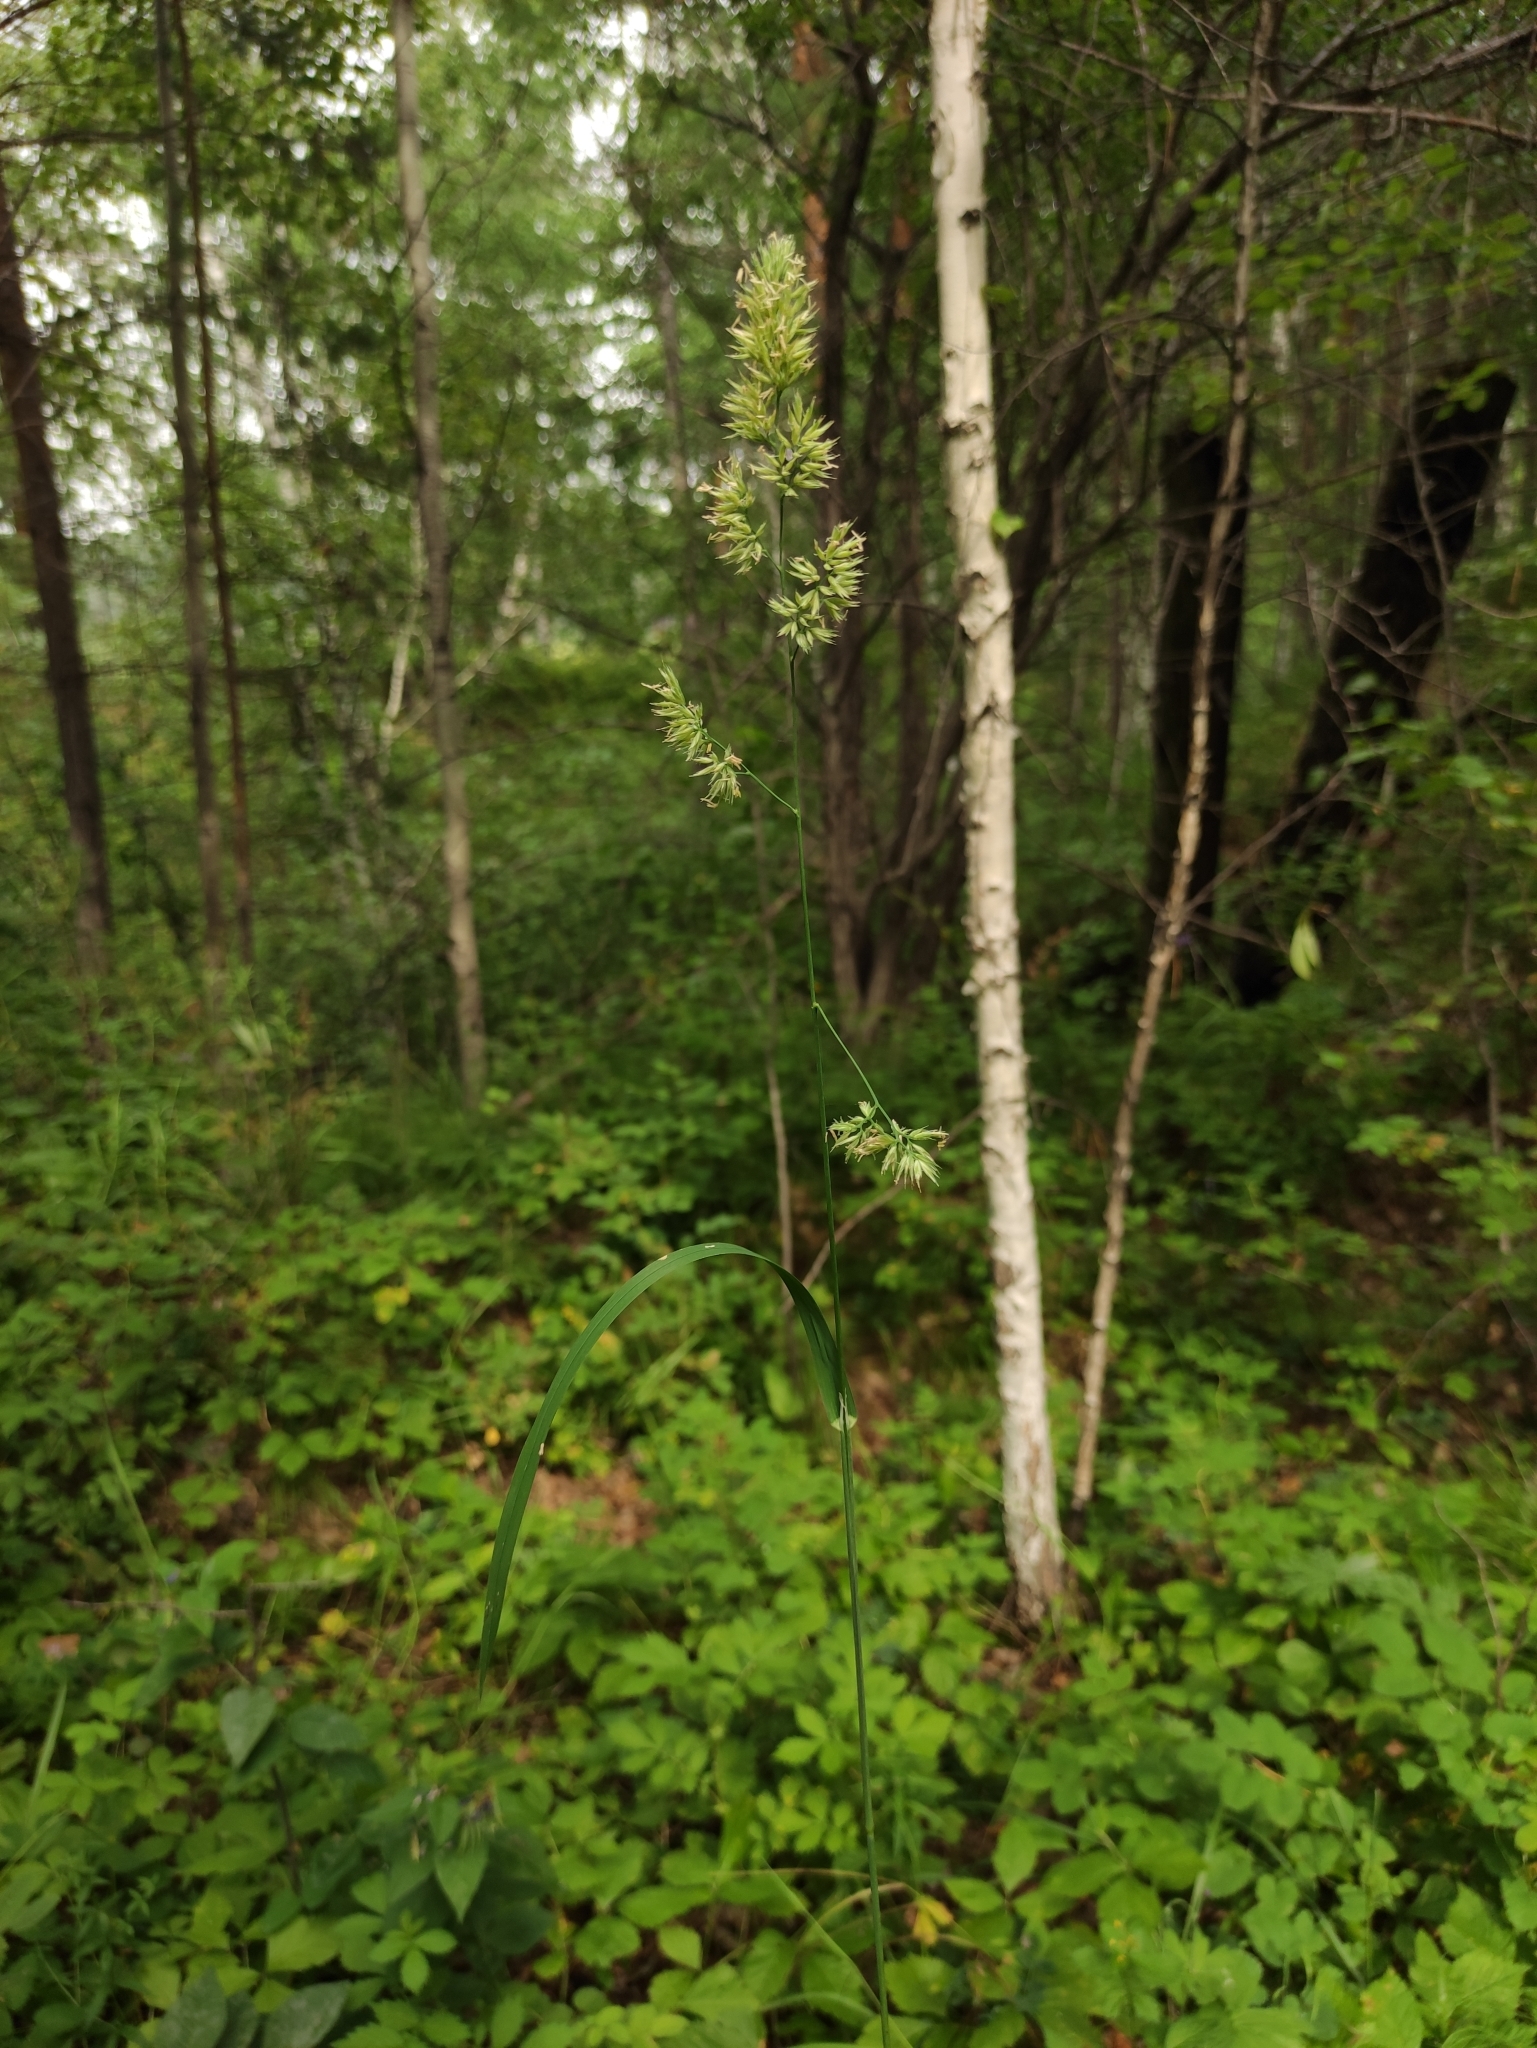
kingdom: Plantae
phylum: Tracheophyta
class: Liliopsida
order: Poales
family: Poaceae
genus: Dactylis
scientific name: Dactylis glomerata
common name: Orchardgrass
